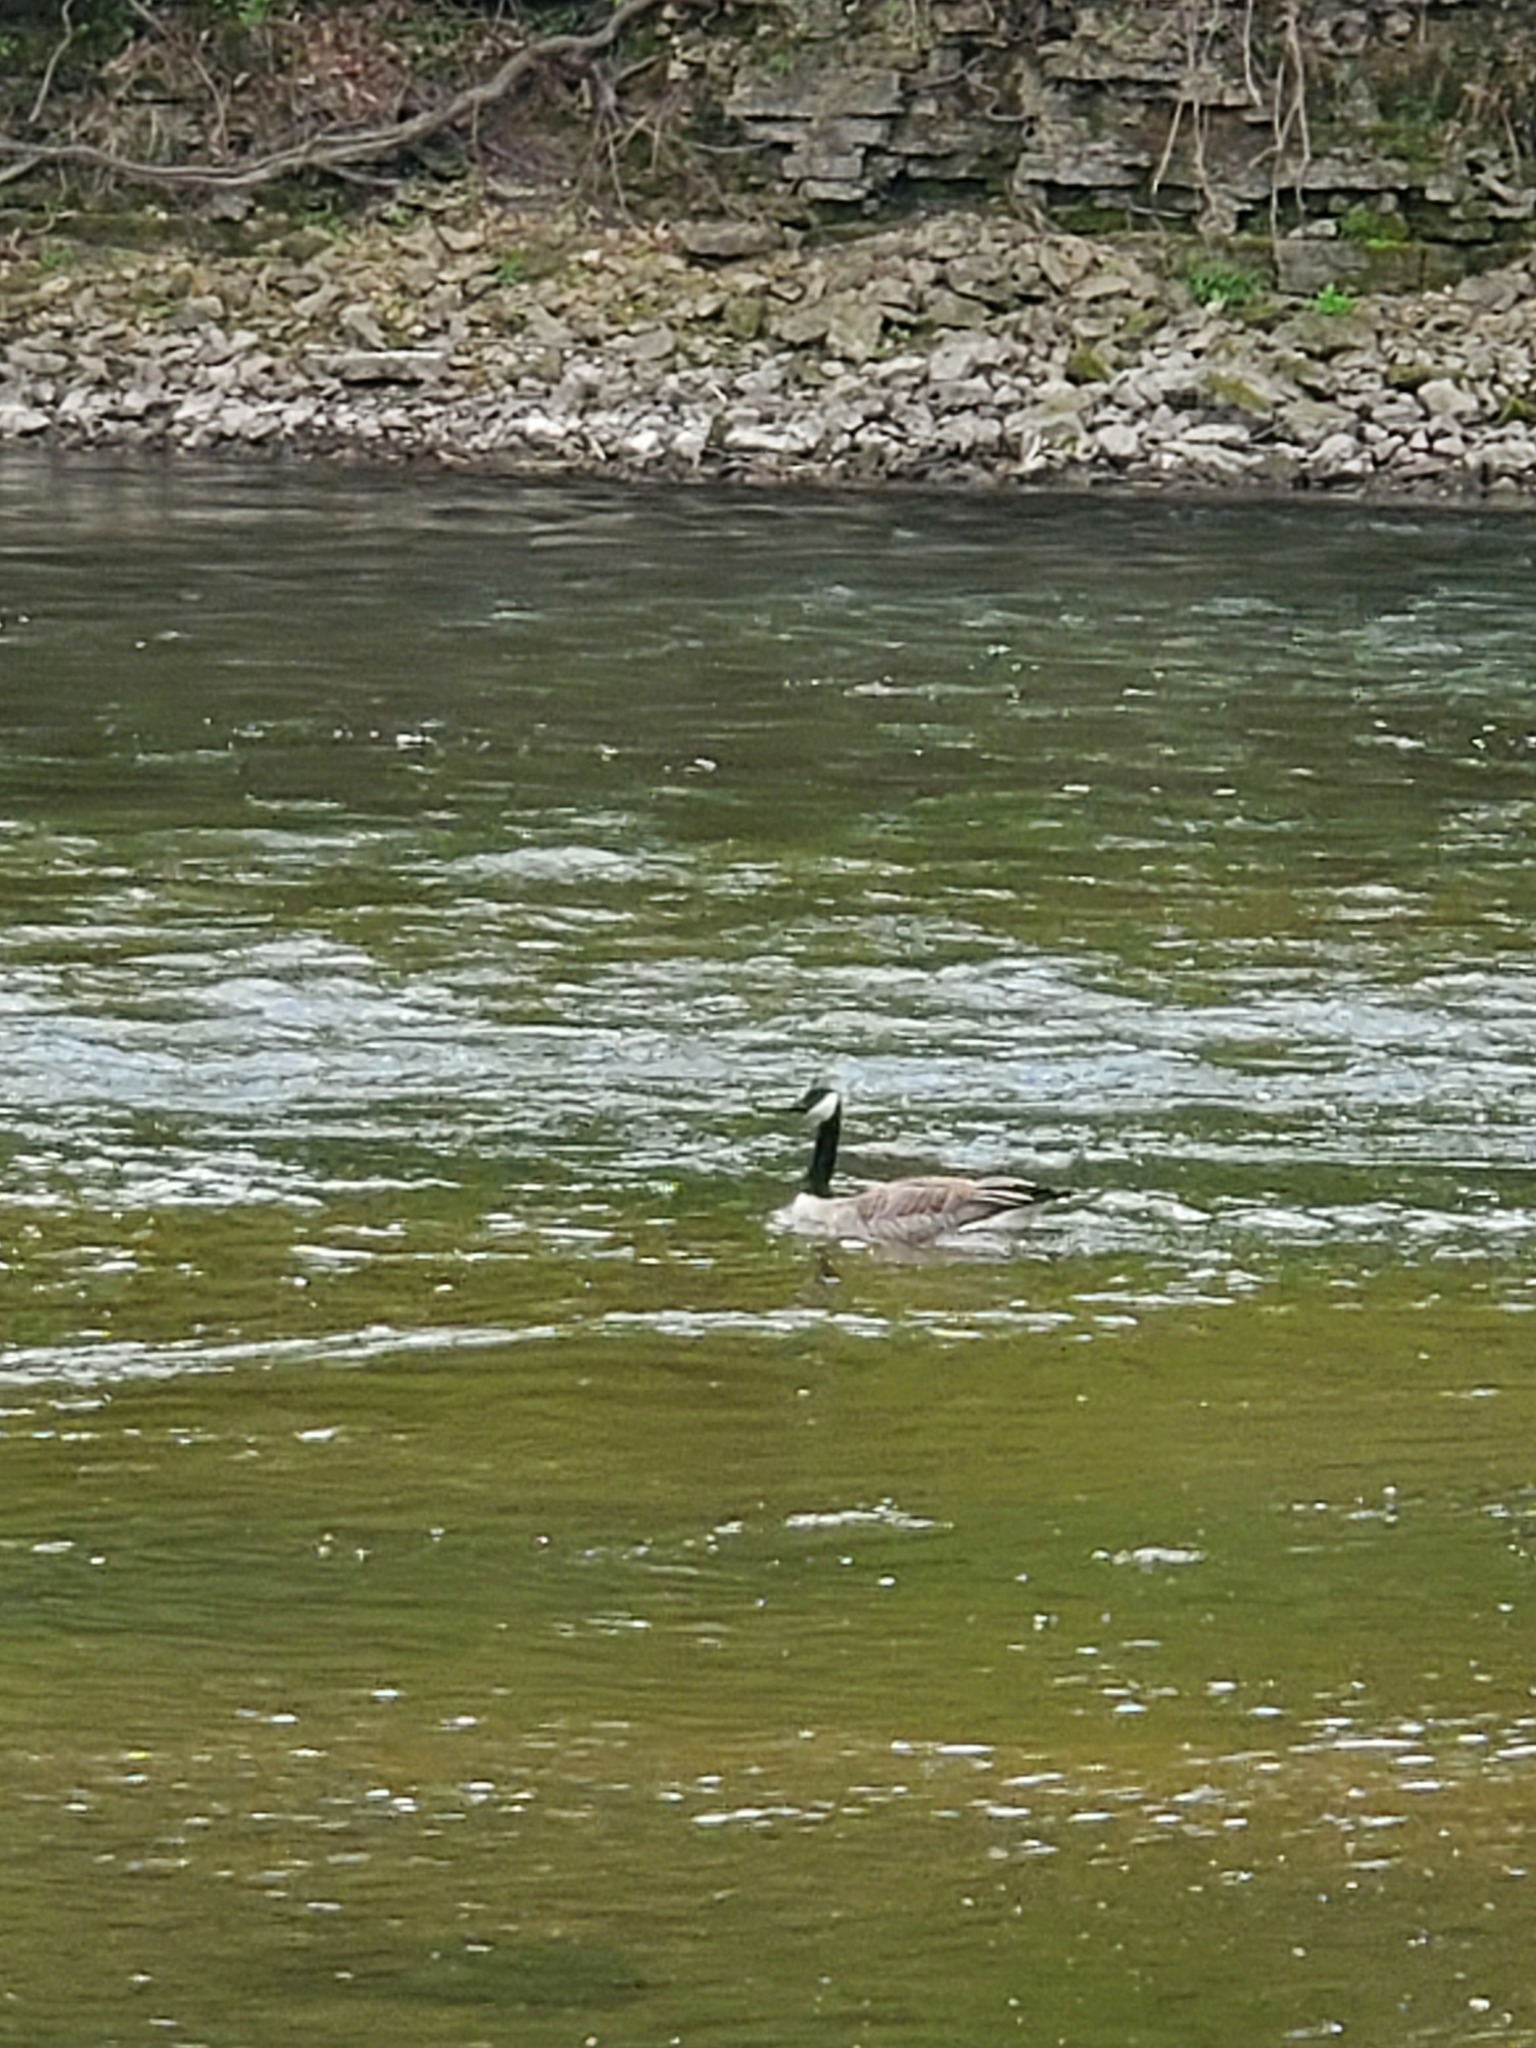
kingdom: Animalia
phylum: Chordata
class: Aves
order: Anseriformes
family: Anatidae
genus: Branta
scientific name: Branta canadensis
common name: Canada goose
